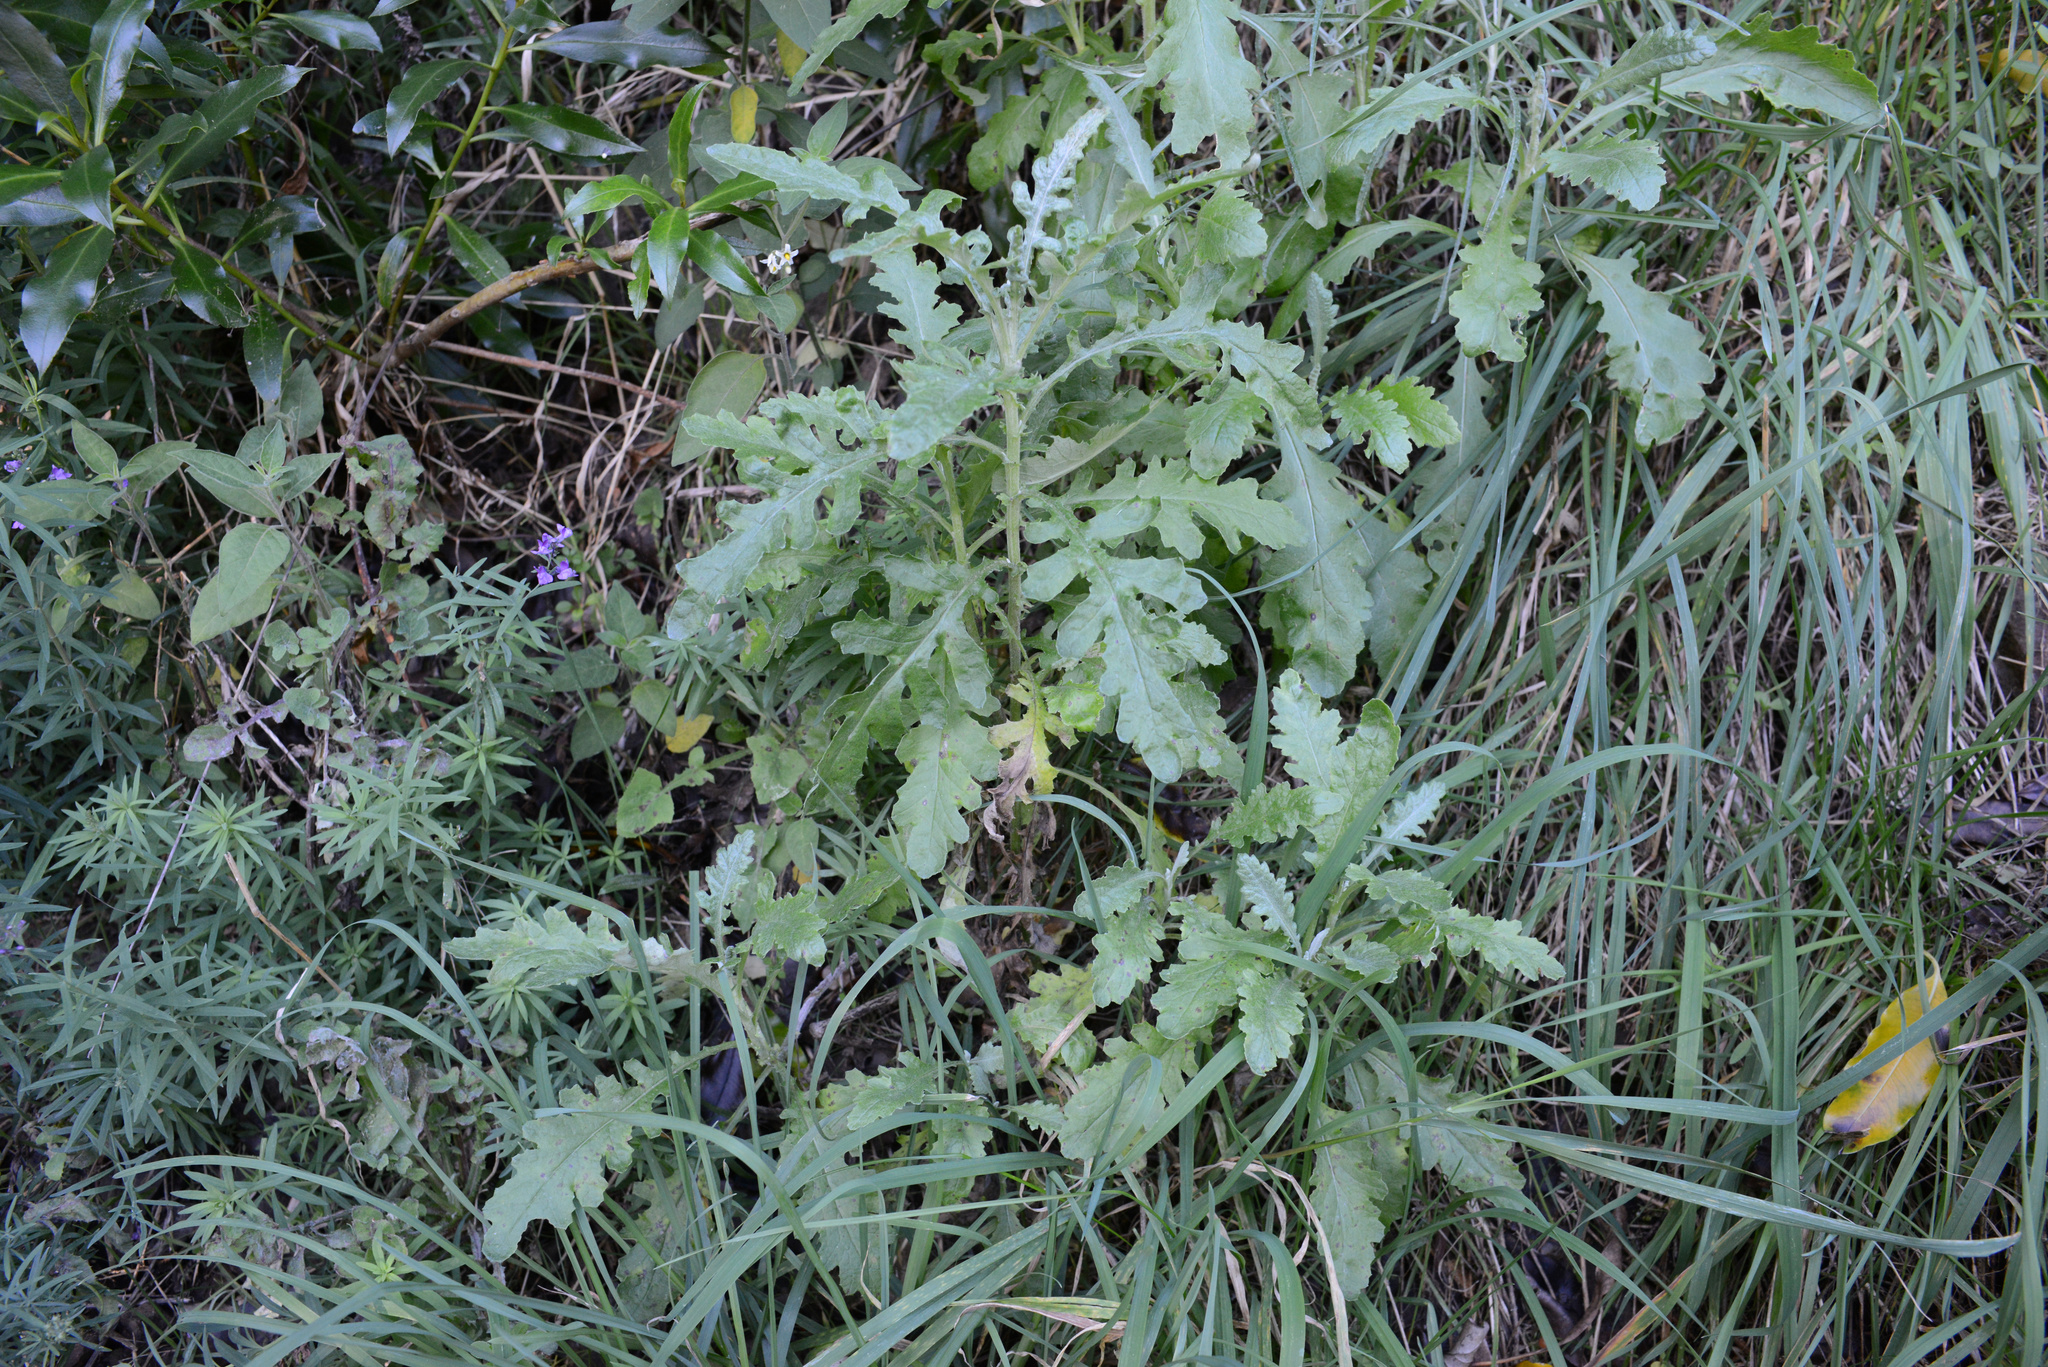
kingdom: Plantae
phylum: Tracheophyta
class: Magnoliopsida
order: Asterales
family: Asteraceae
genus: Senecio
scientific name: Senecio glomeratus
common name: Cutleaf burnweed
